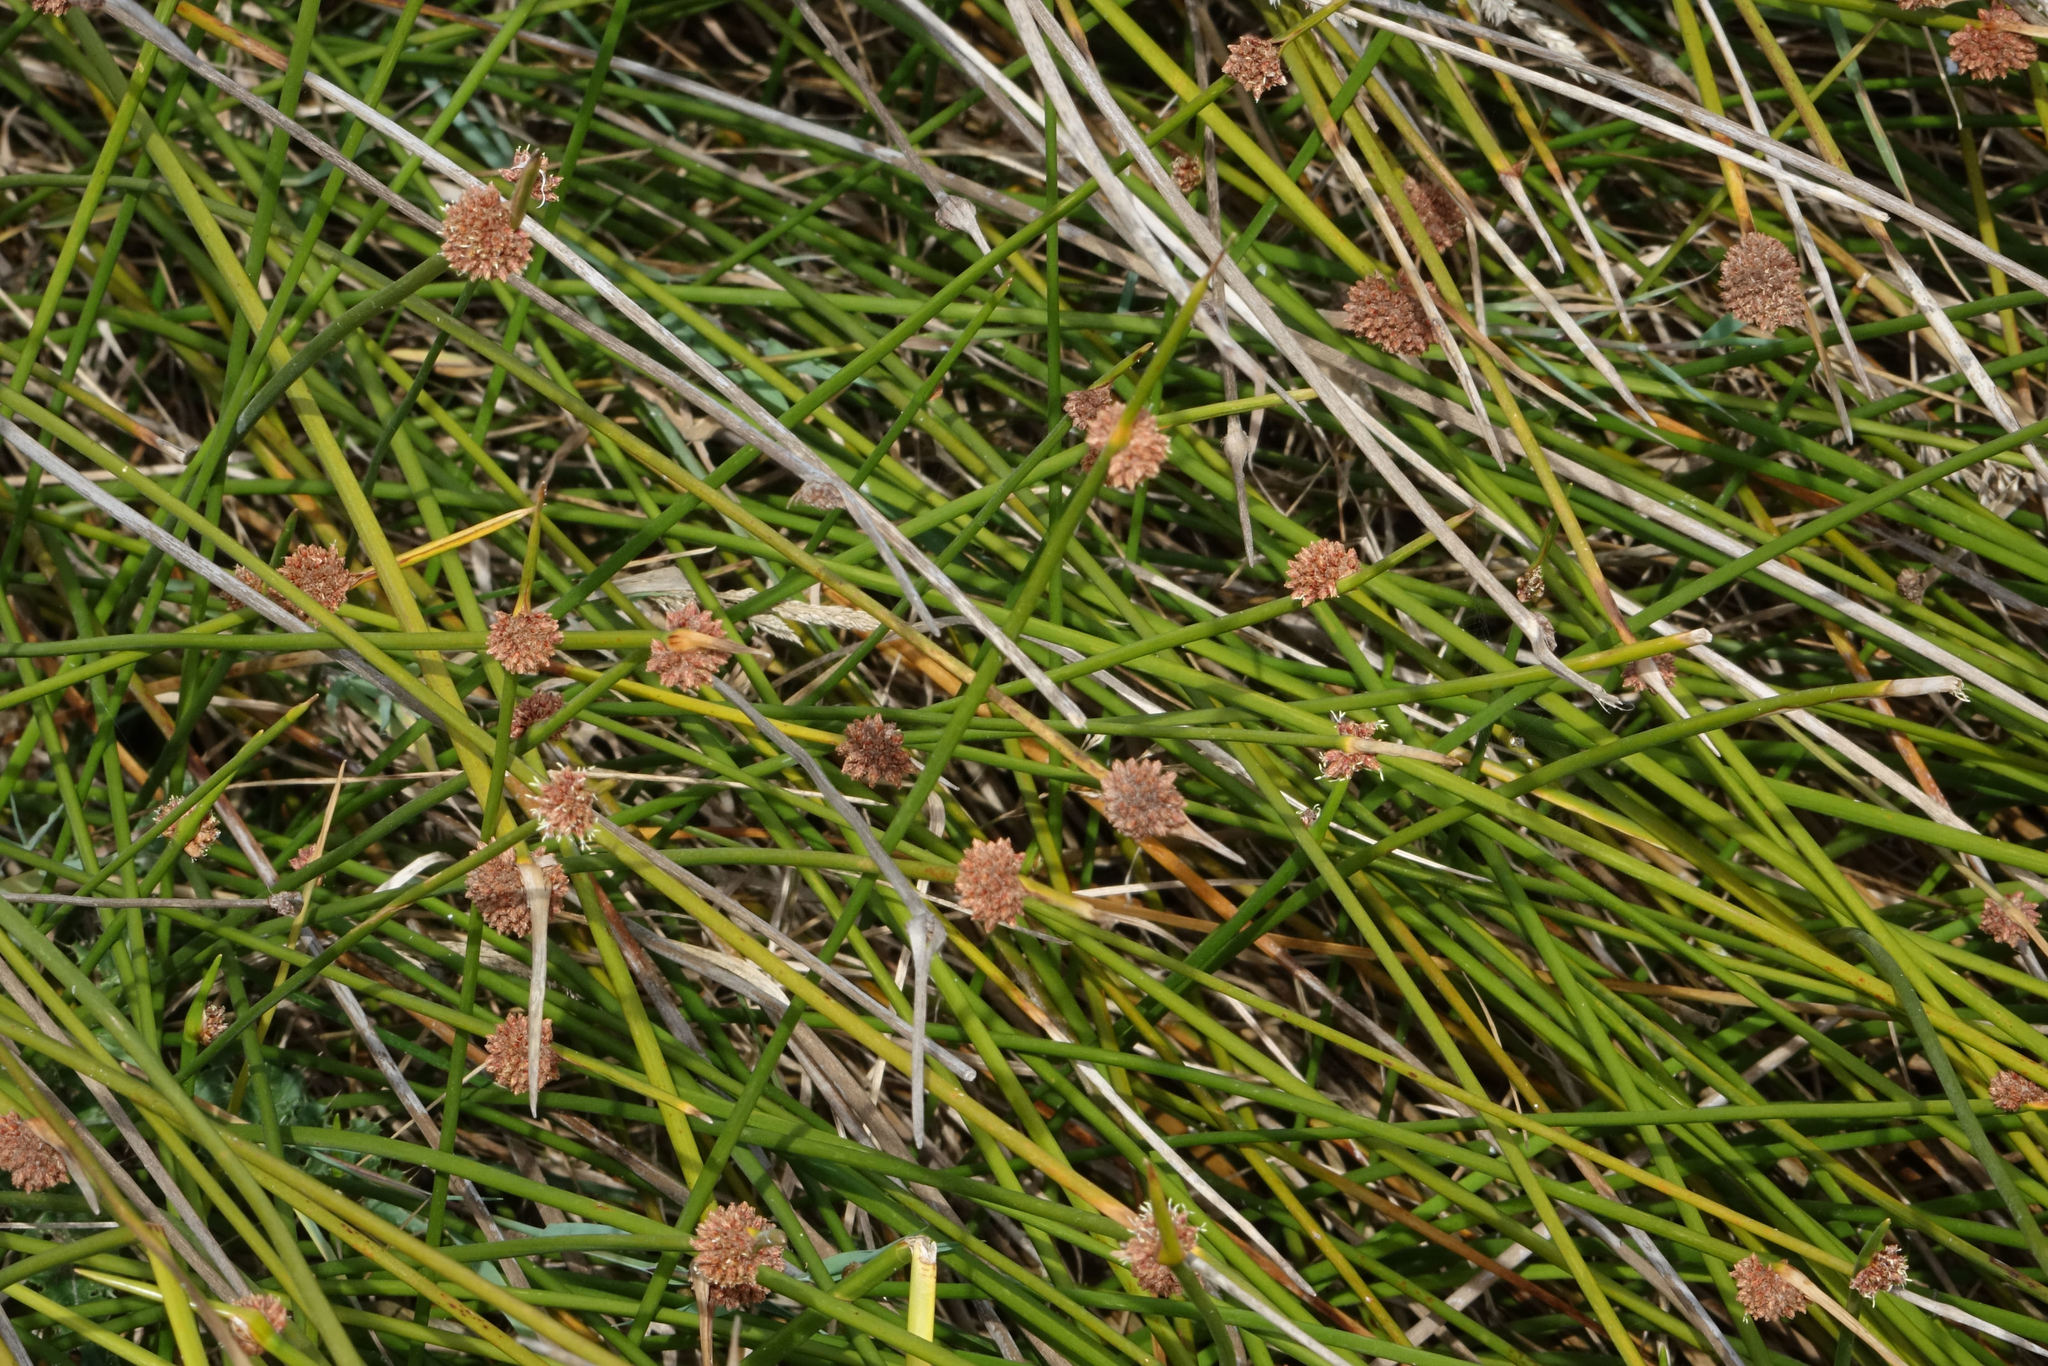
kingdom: Plantae
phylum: Tracheophyta
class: Liliopsida
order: Poales
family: Cyperaceae
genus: Ficinia
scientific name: Ficinia nodosa
